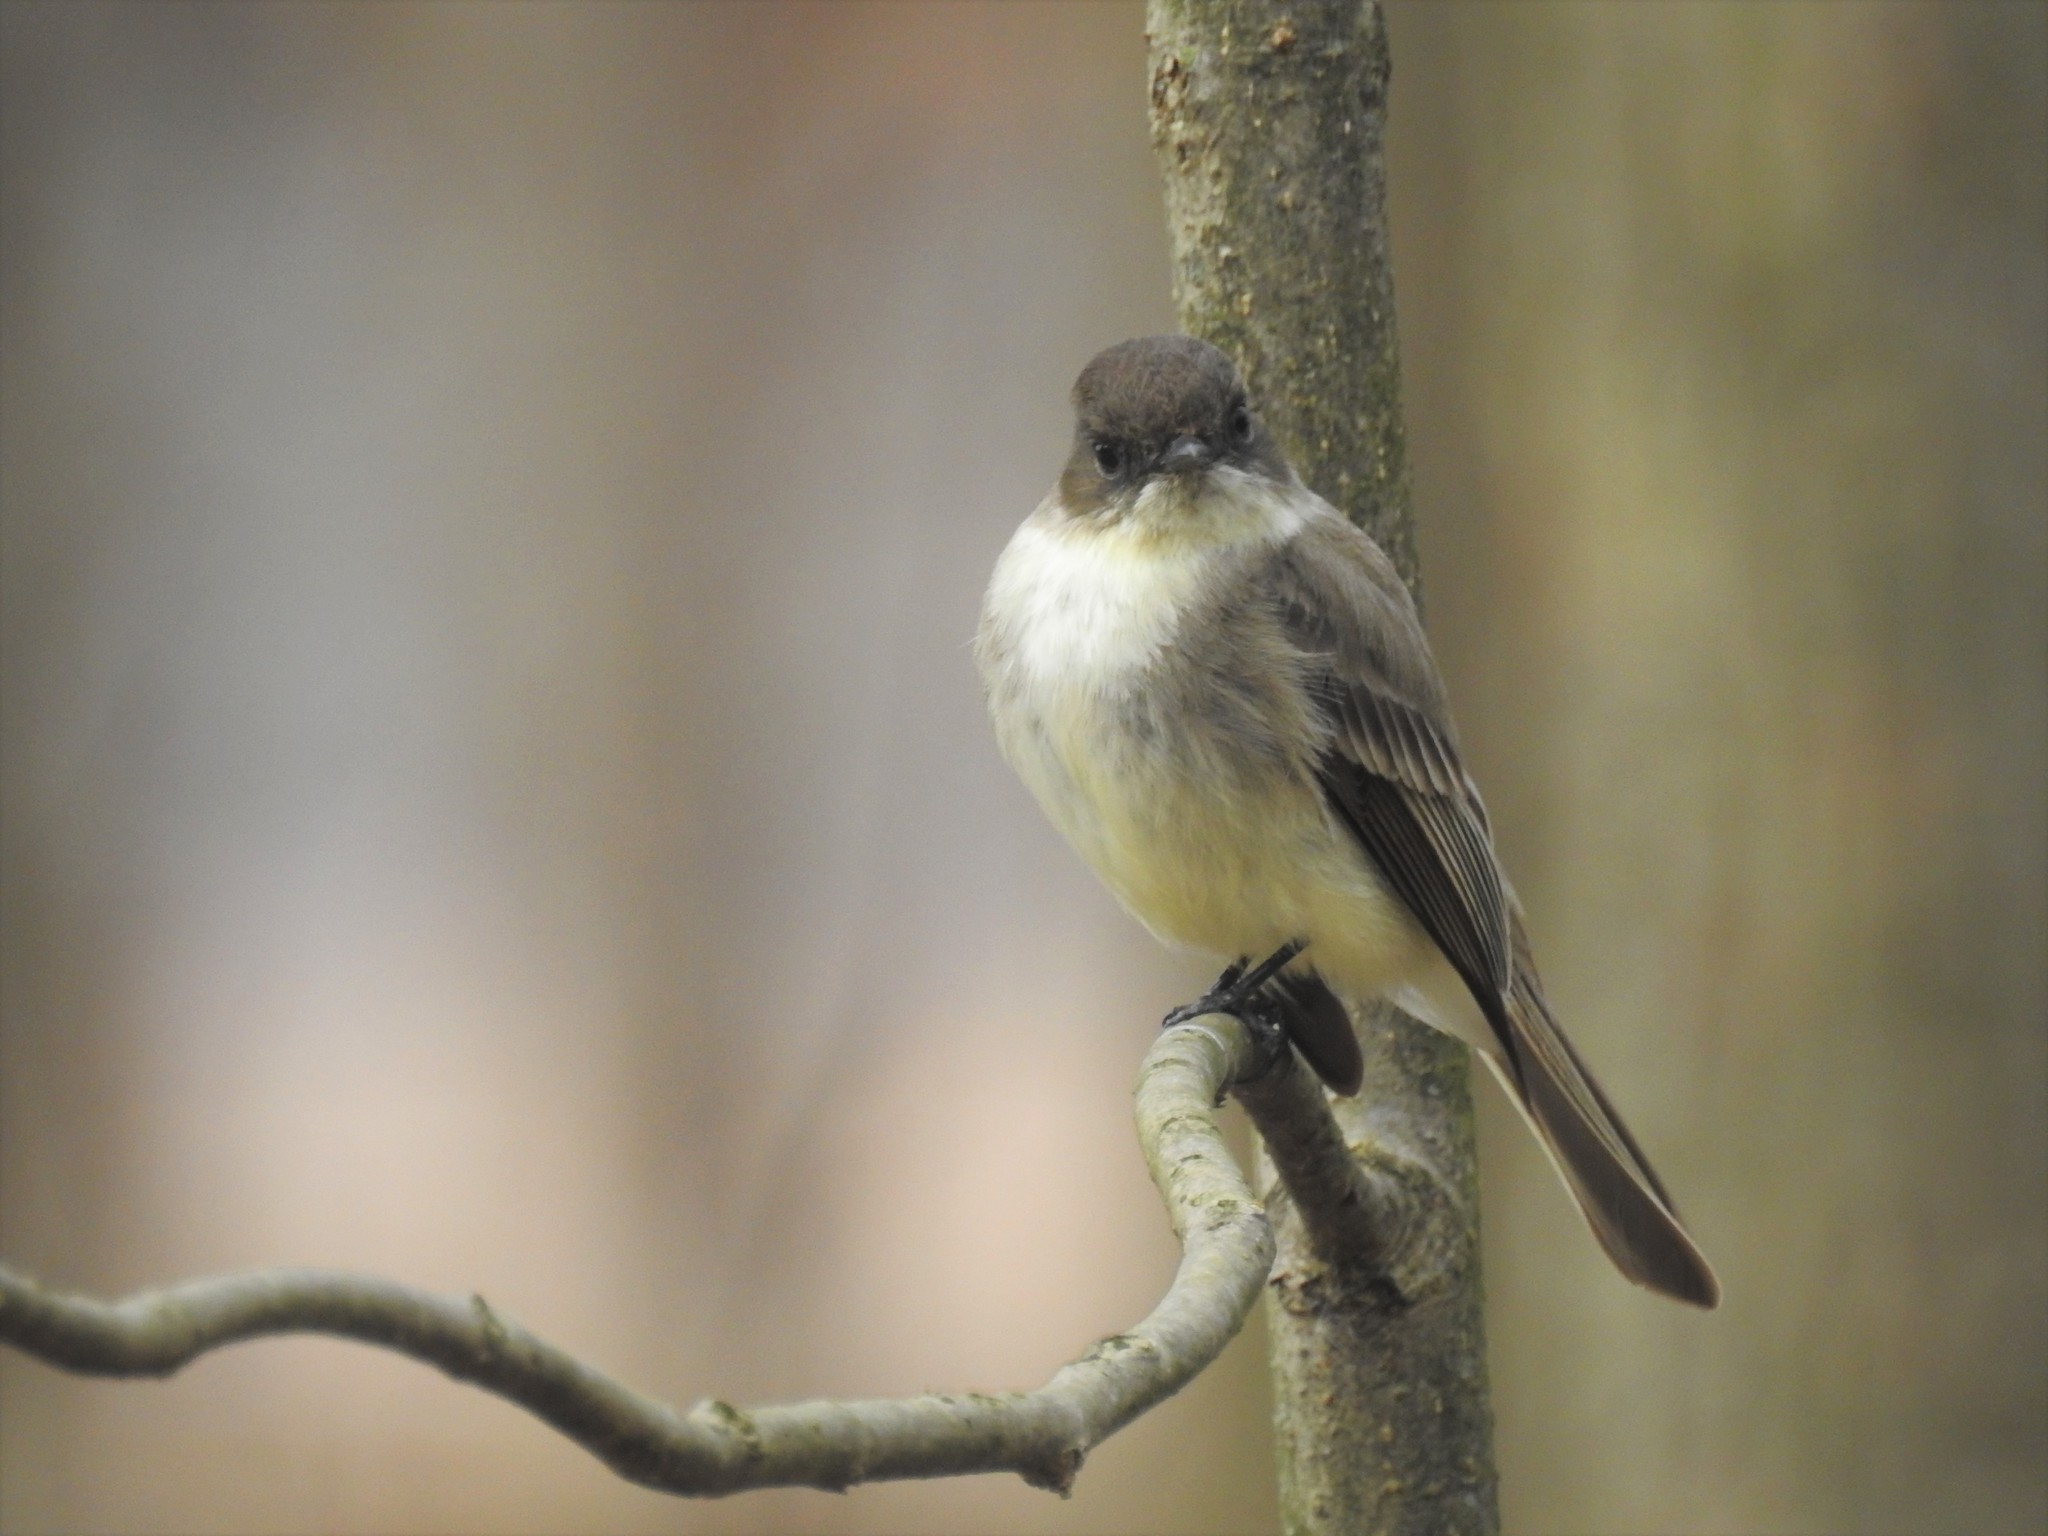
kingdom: Animalia
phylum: Chordata
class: Aves
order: Passeriformes
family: Tyrannidae
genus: Sayornis
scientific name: Sayornis phoebe
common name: Eastern phoebe
